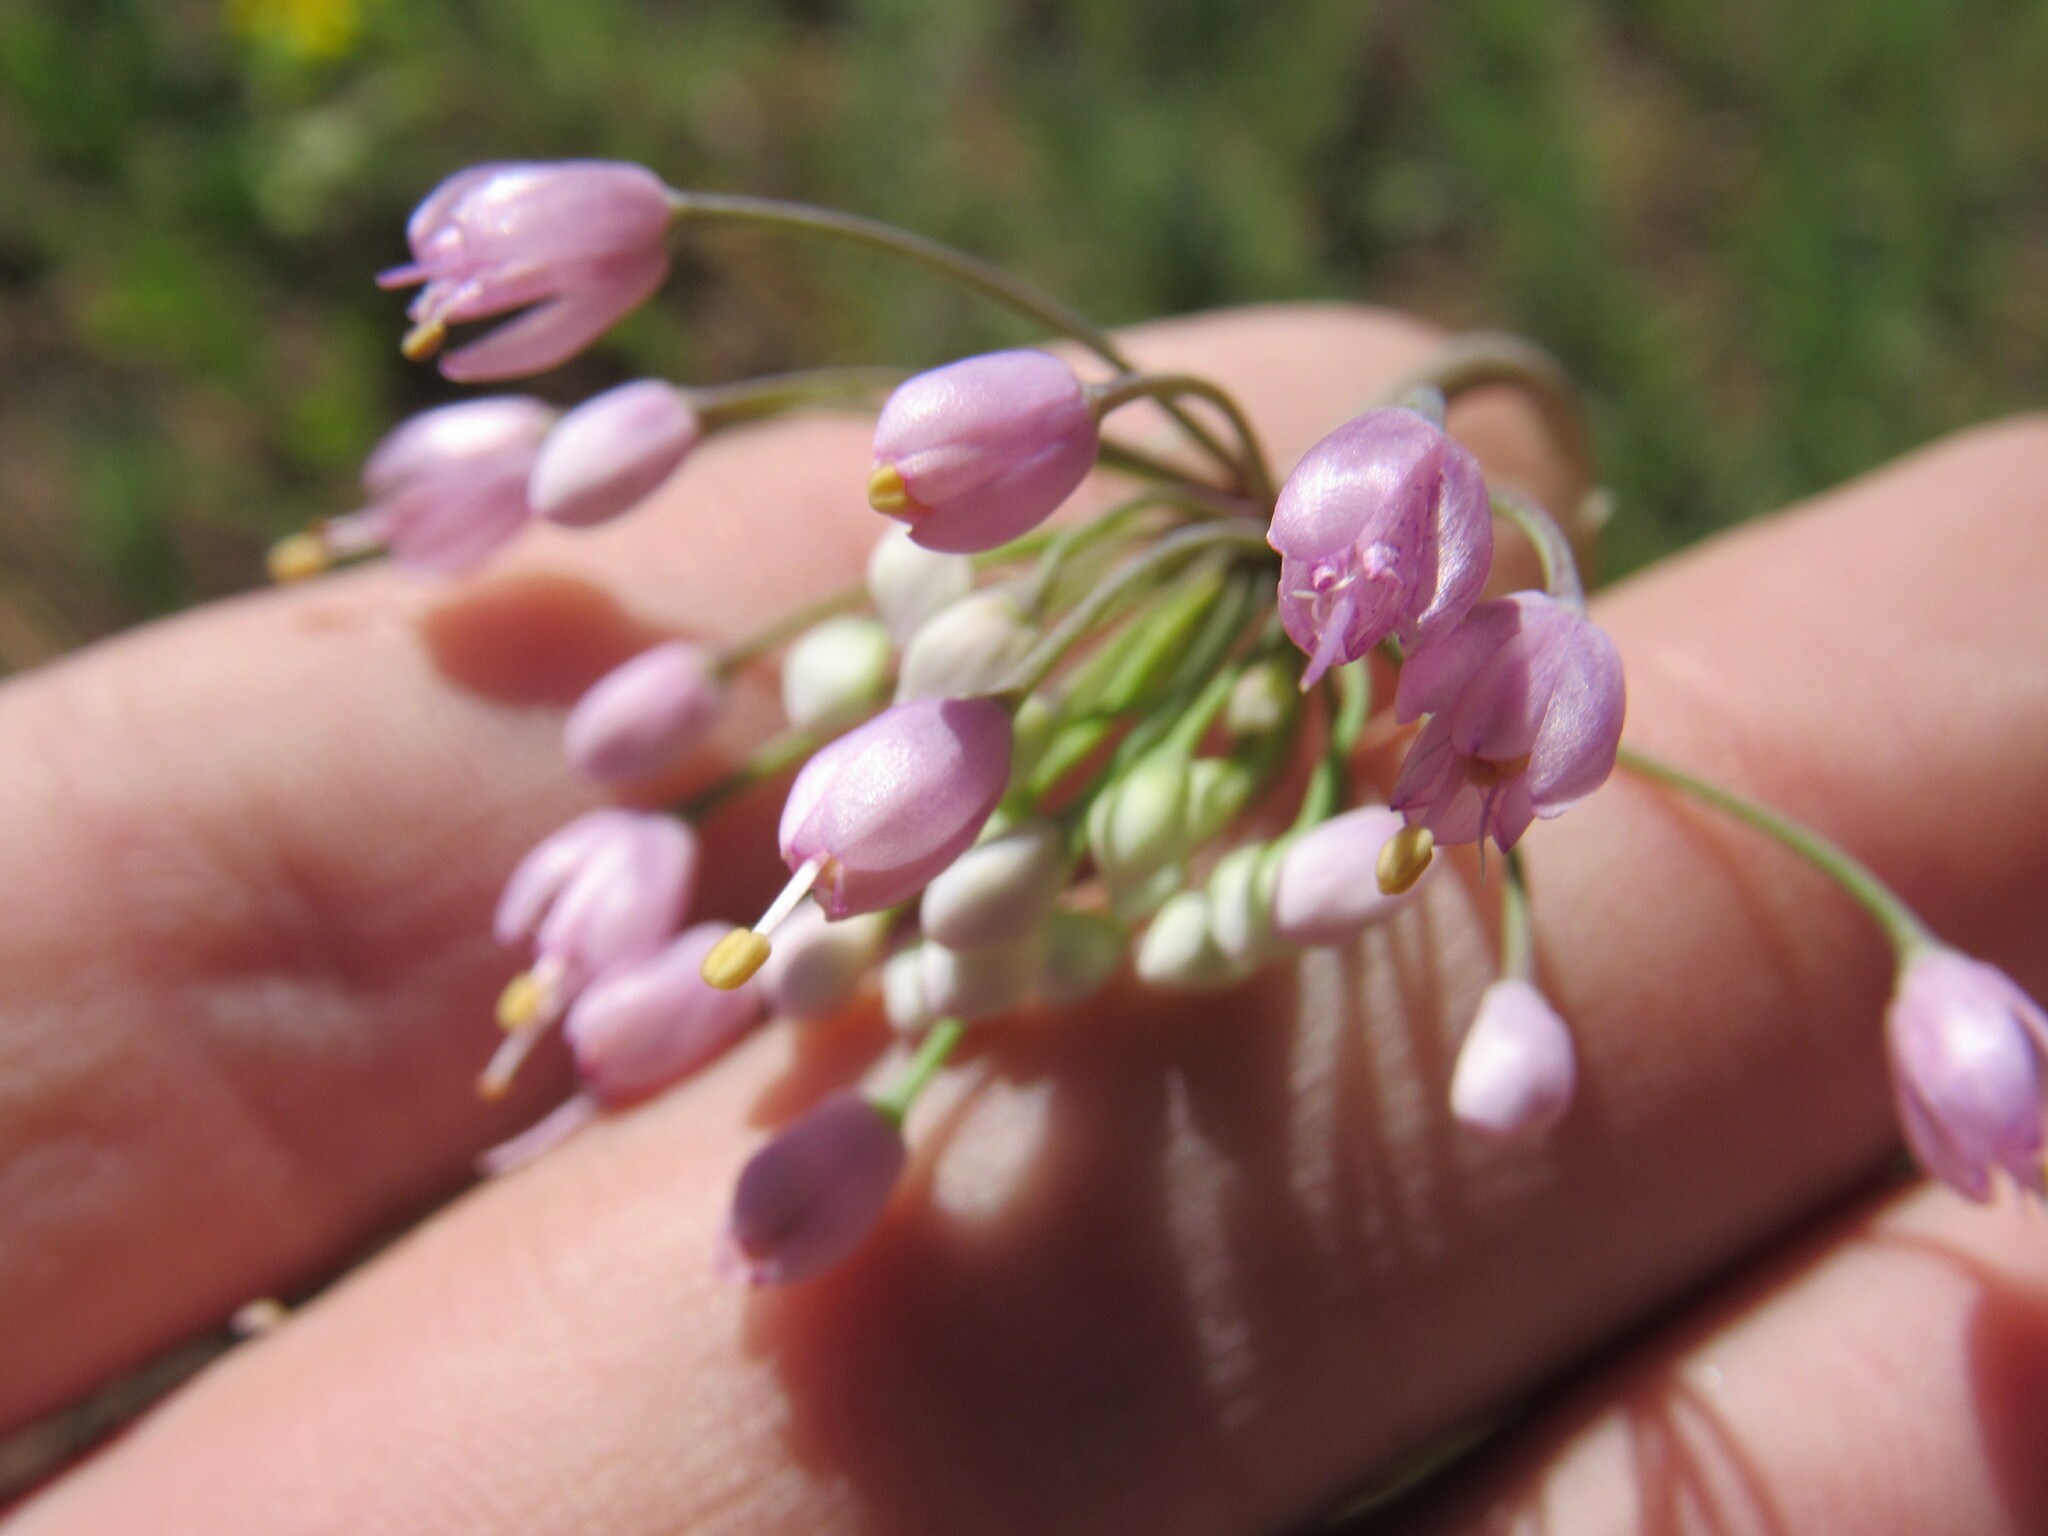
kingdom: Plantae
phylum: Tracheophyta
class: Liliopsida
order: Asparagales
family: Amaryllidaceae
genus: Allium
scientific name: Allium cernuum
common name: Nodding onion
